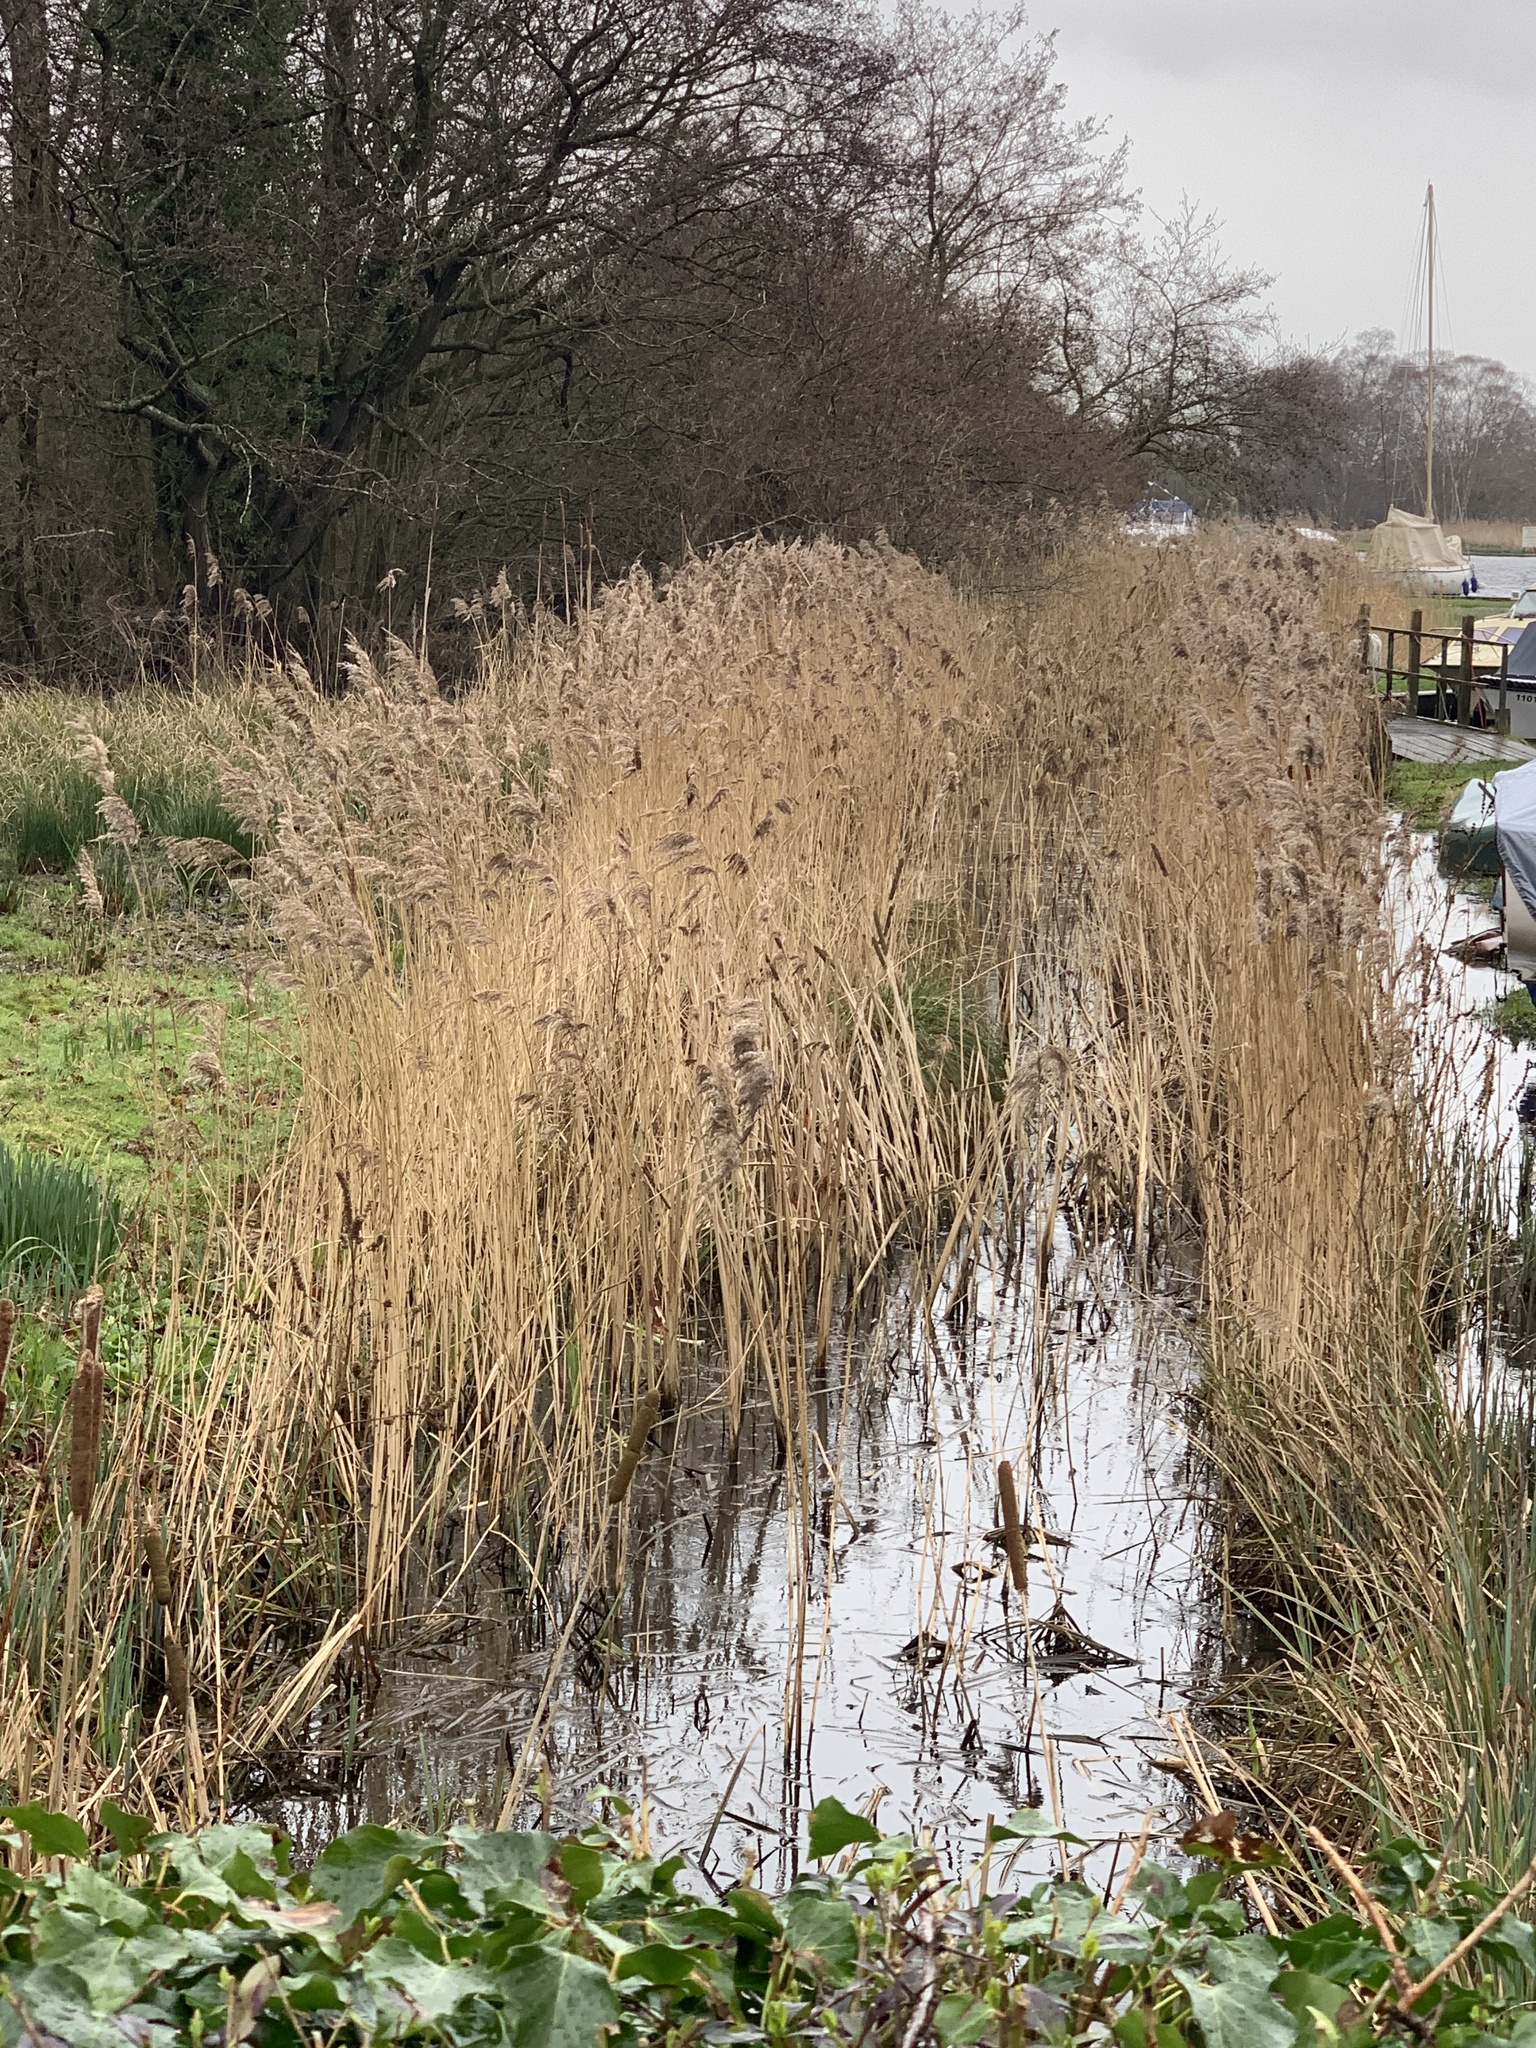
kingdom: Plantae
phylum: Tracheophyta
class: Liliopsida
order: Poales
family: Poaceae
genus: Phragmites
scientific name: Phragmites australis
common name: Common reed
